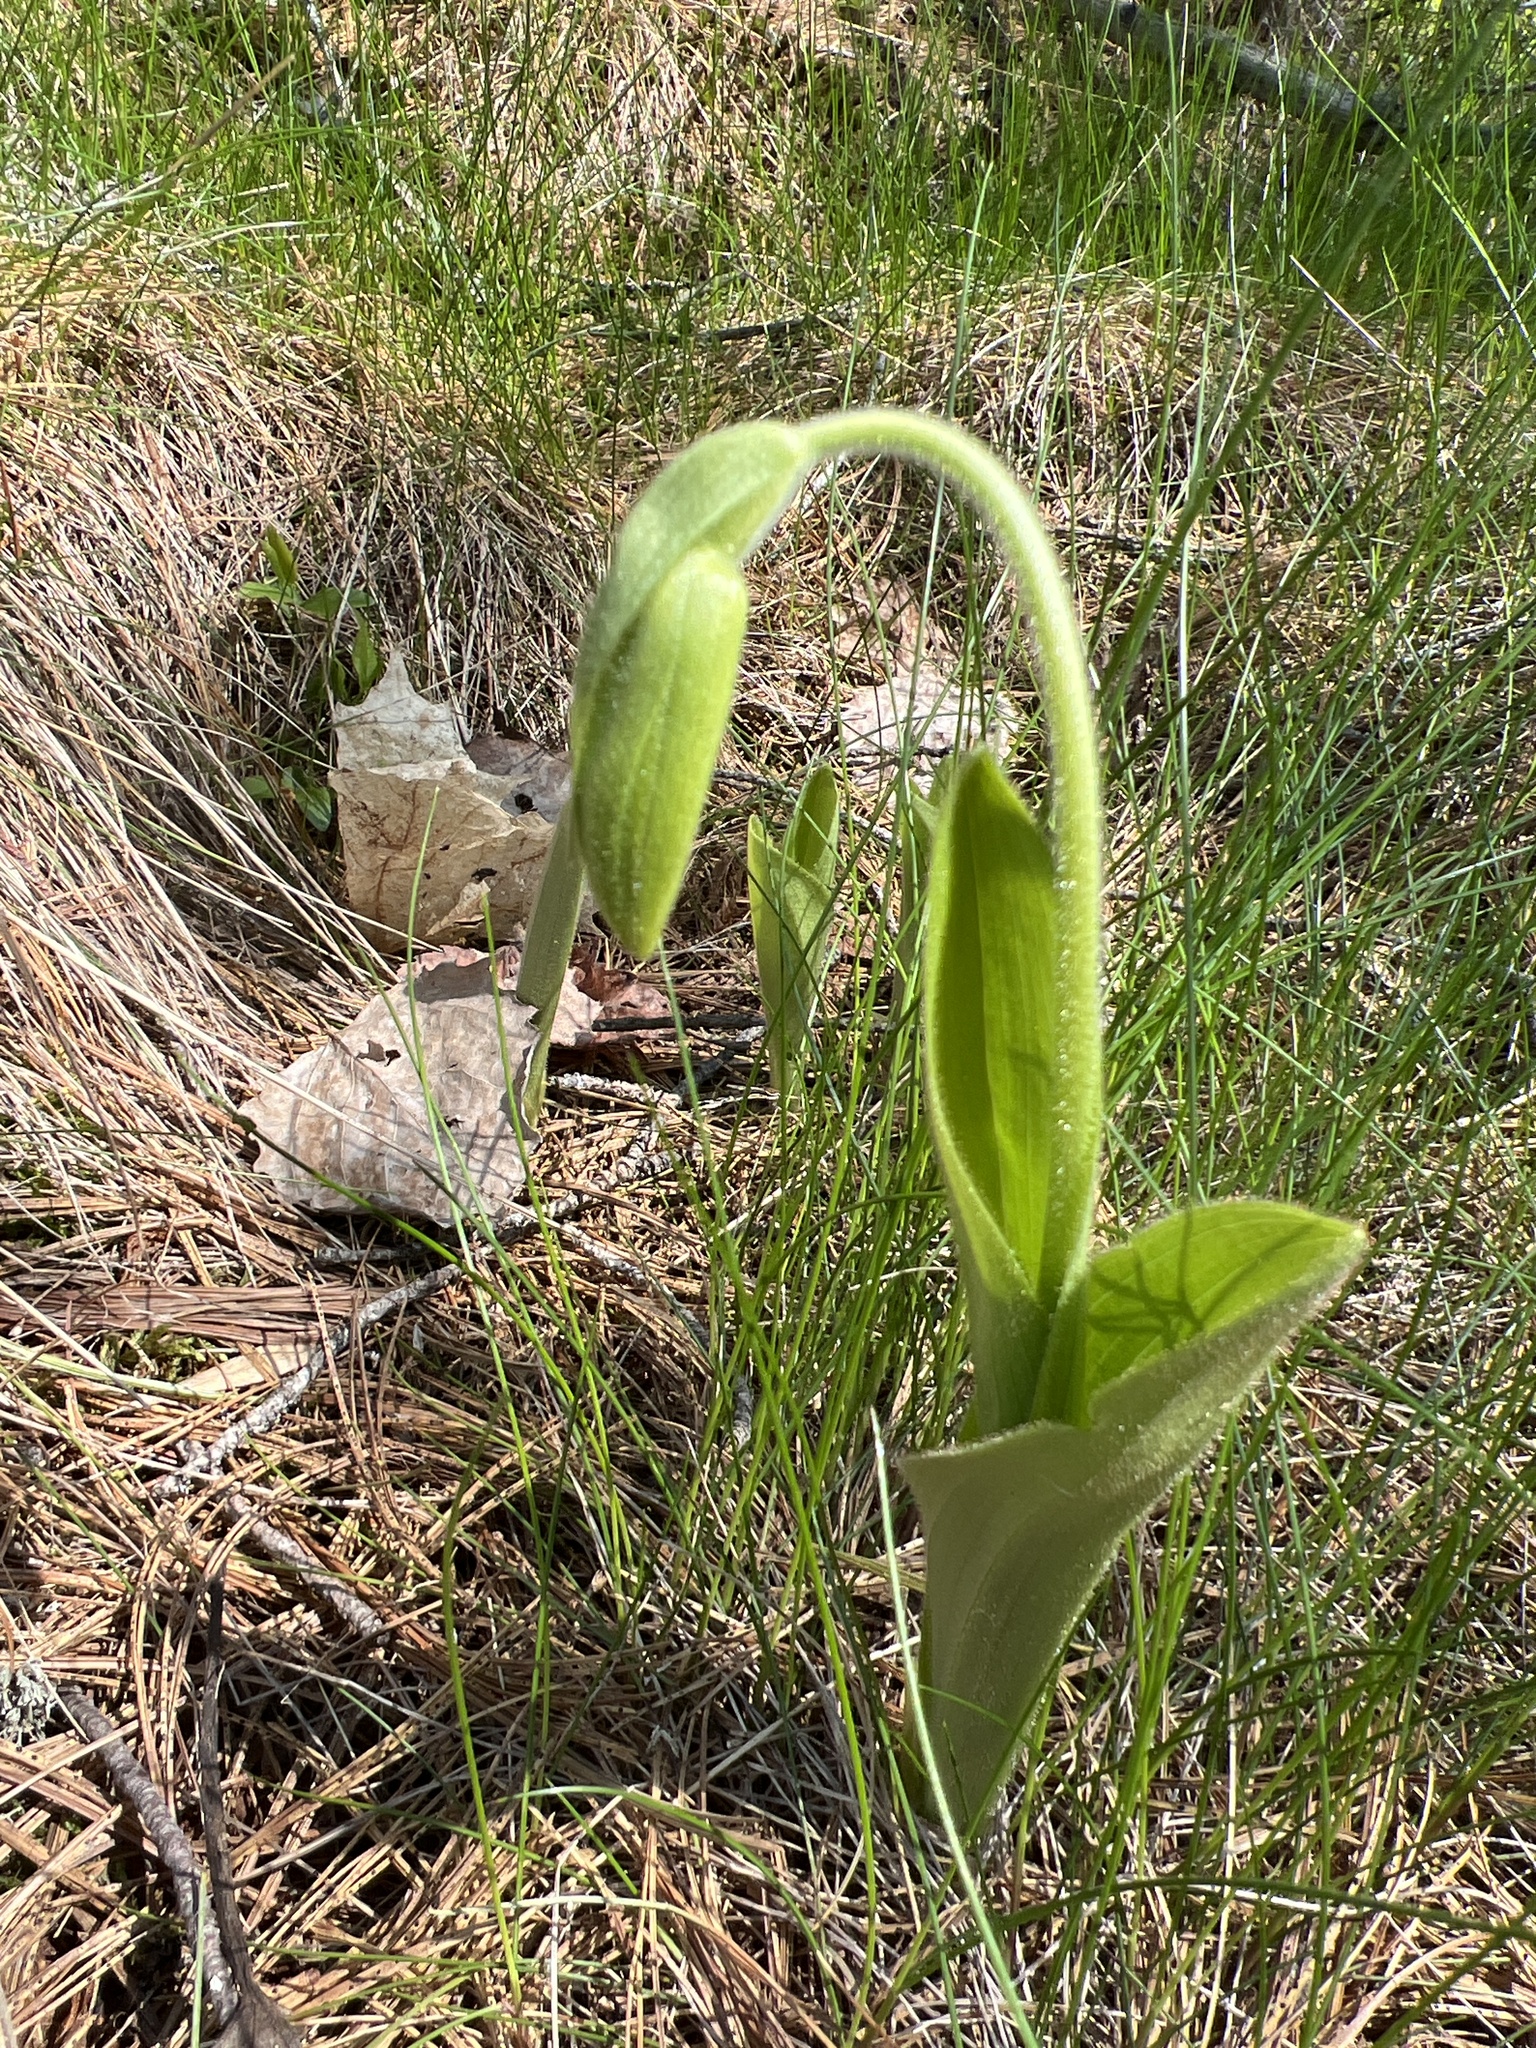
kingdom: Plantae
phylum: Tracheophyta
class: Liliopsida
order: Asparagales
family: Orchidaceae
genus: Cypripedium
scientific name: Cypripedium acaule
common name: Pink lady's-slipper
